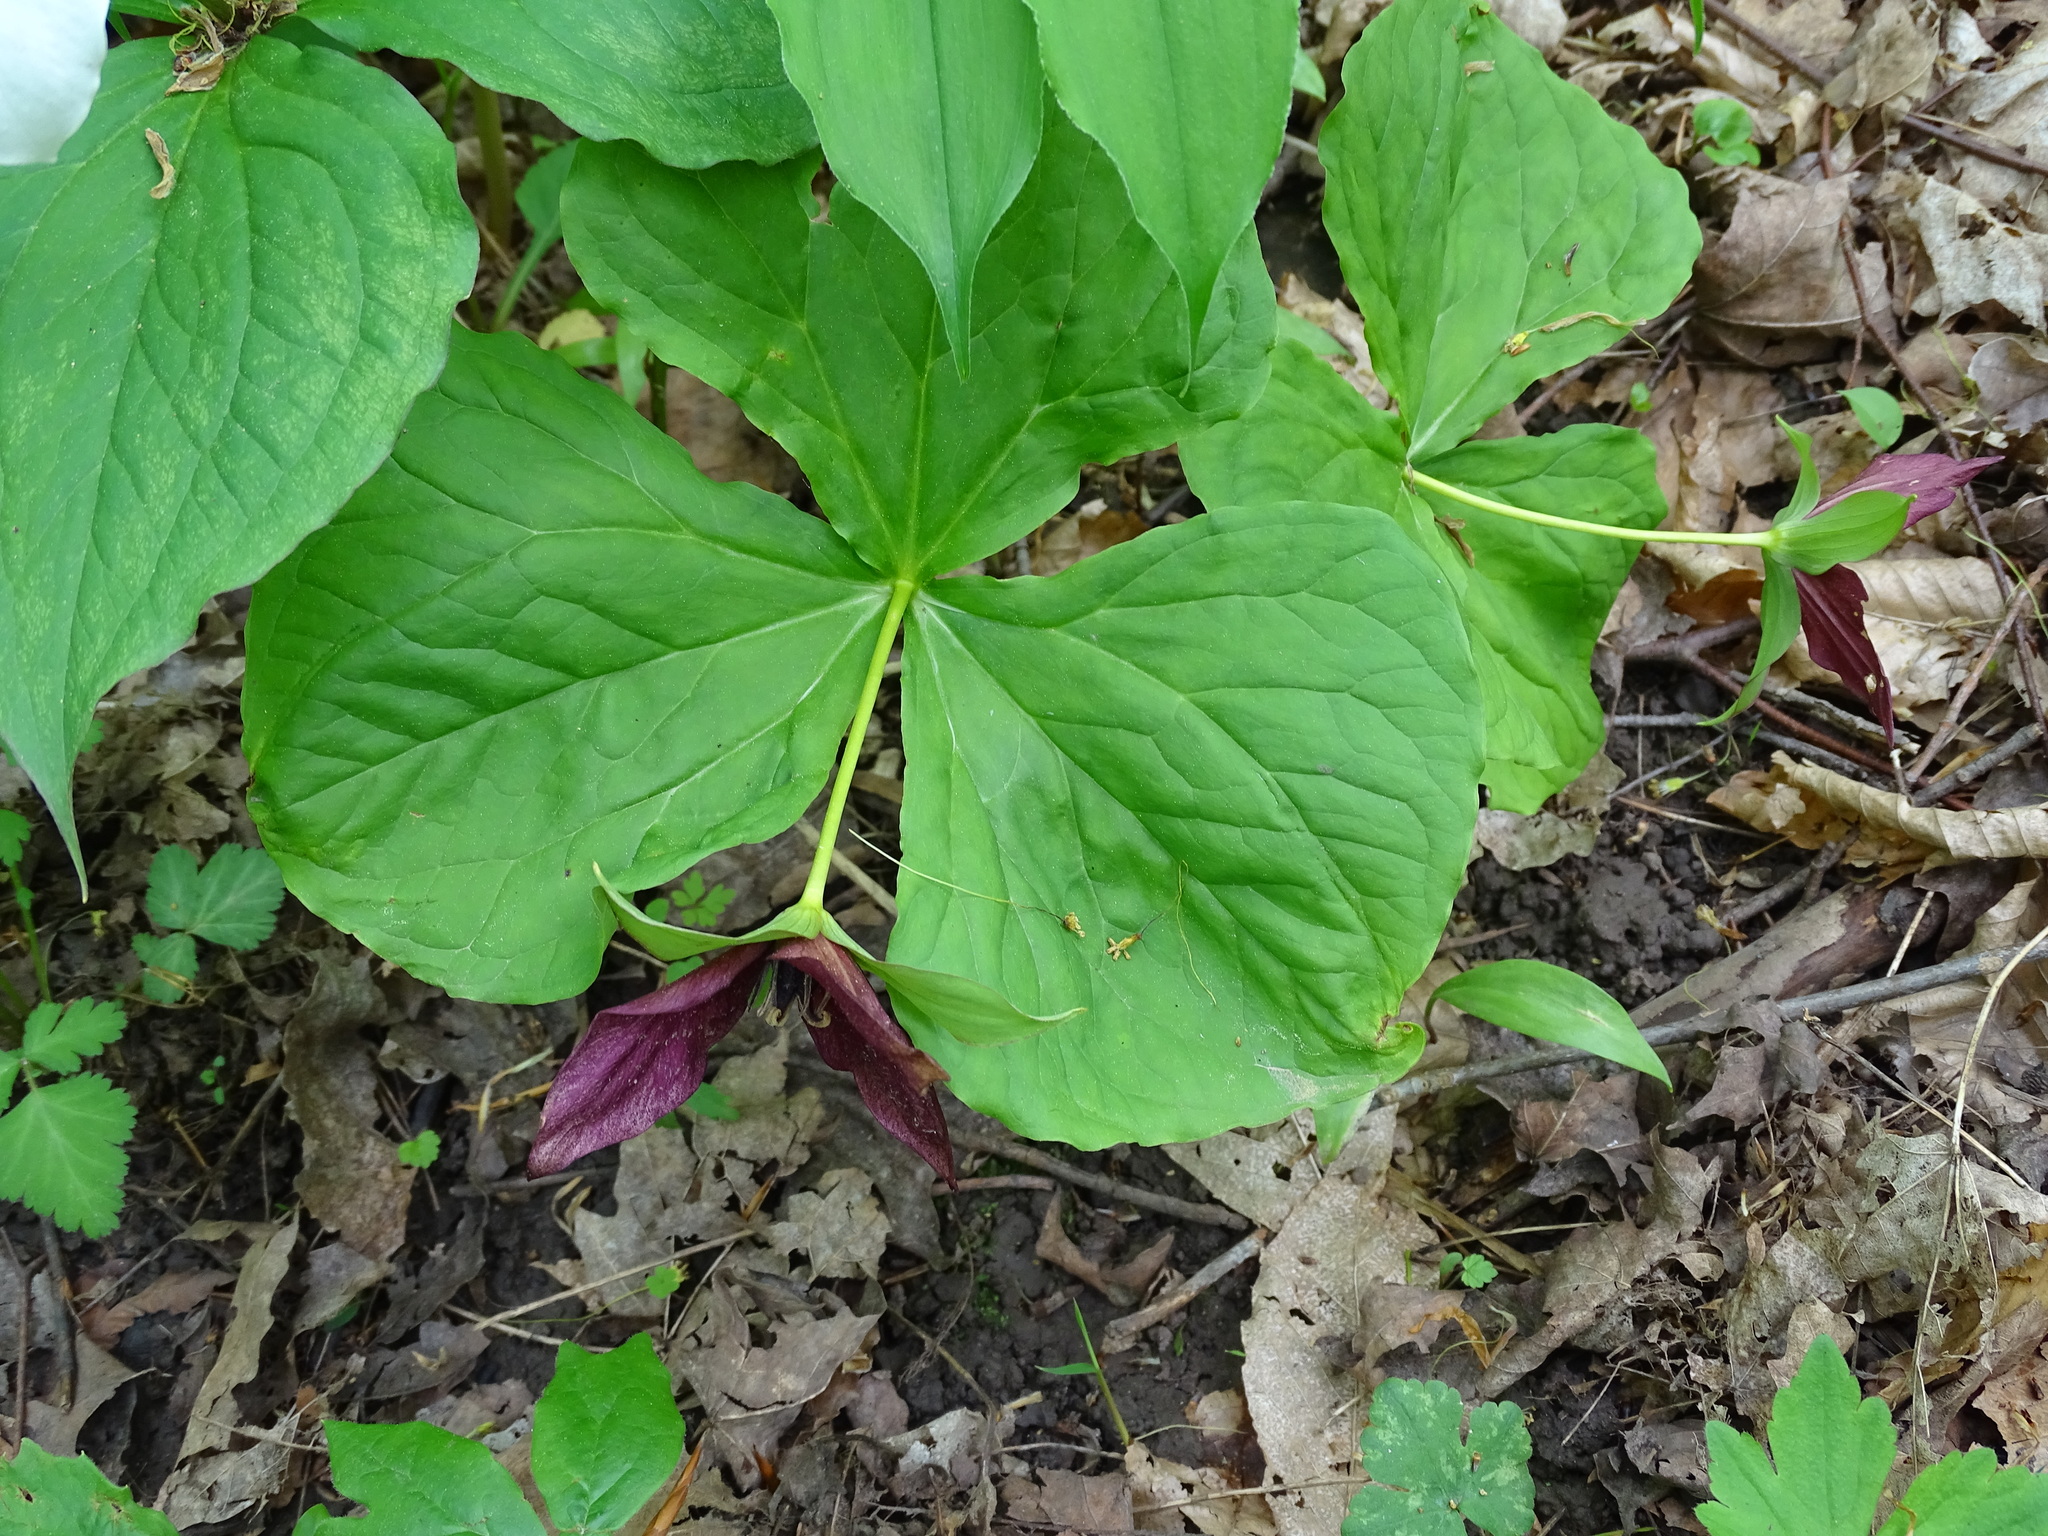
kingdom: Plantae
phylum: Tracheophyta
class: Liliopsida
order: Liliales
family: Melanthiaceae
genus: Trillium
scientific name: Trillium erectum
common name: Purple trillium
